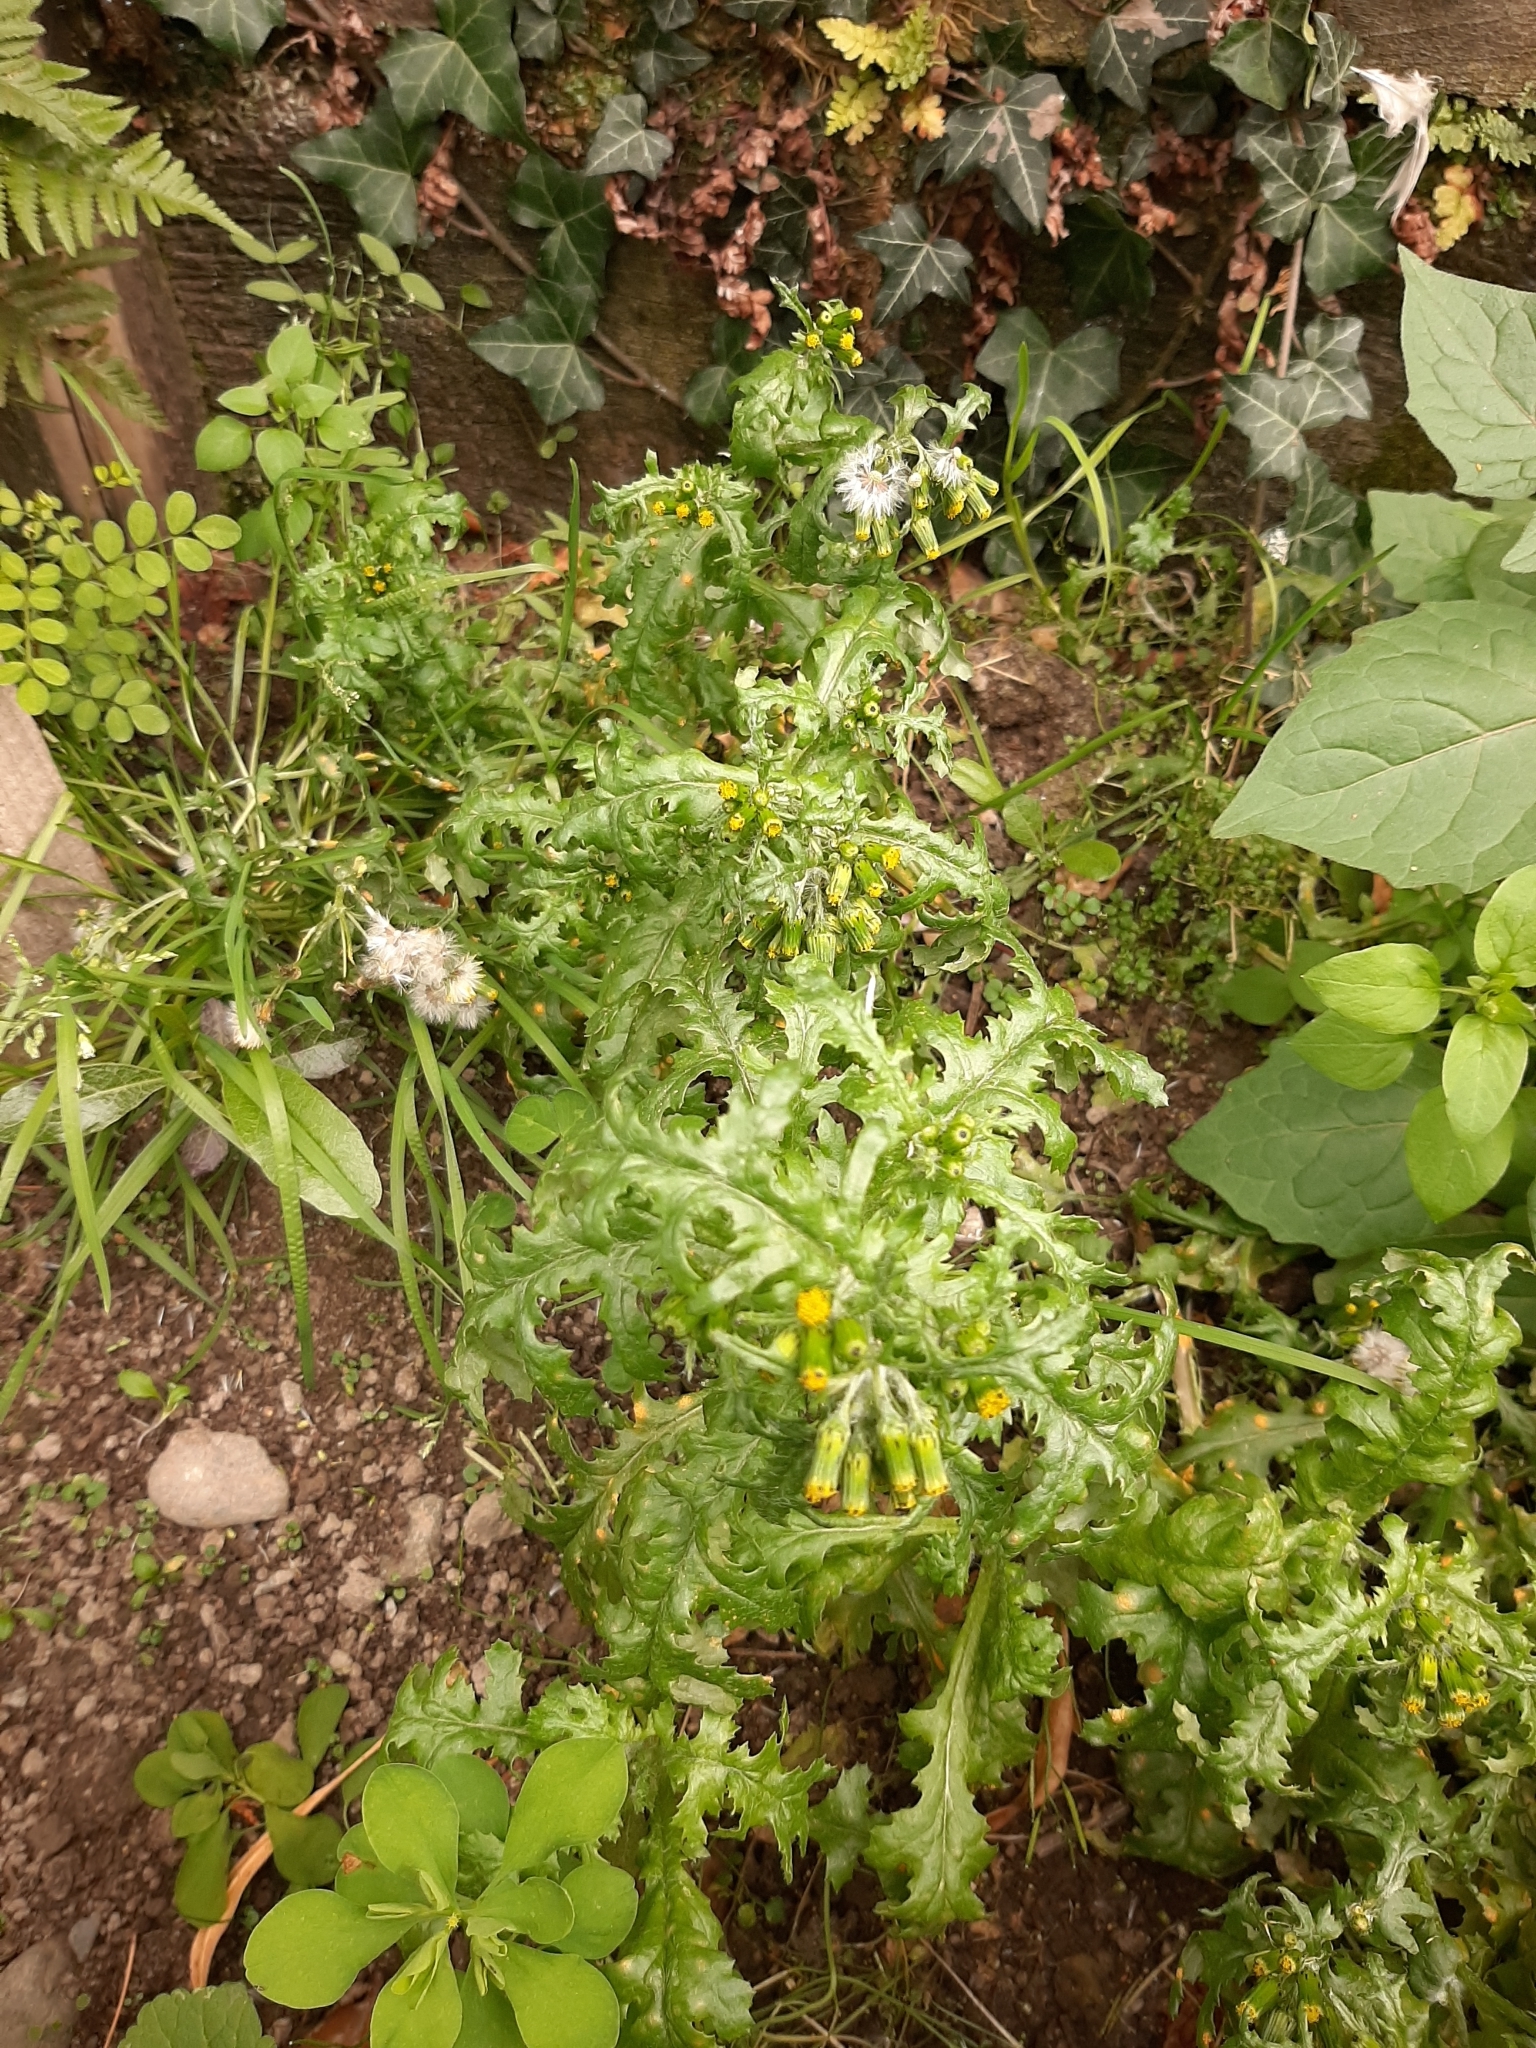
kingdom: Plantae
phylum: Tracheophyta
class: Magnoliopsida
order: Asterales
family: Asteraceae
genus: Senecio
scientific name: Senecio vulgaris
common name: Old-man-in-the-spring
